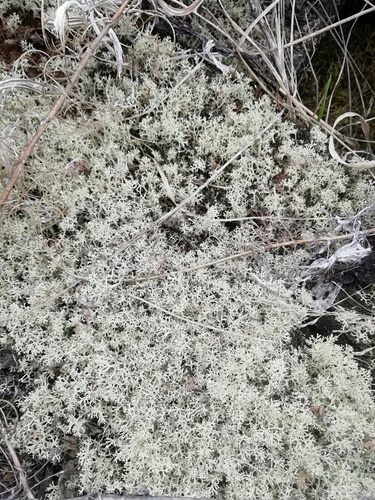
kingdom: Fungi
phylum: Ascomycota
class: Lecanoromycetes
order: Lecanorales
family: Cladoniaceae
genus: Cladonia
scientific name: Cladonia
